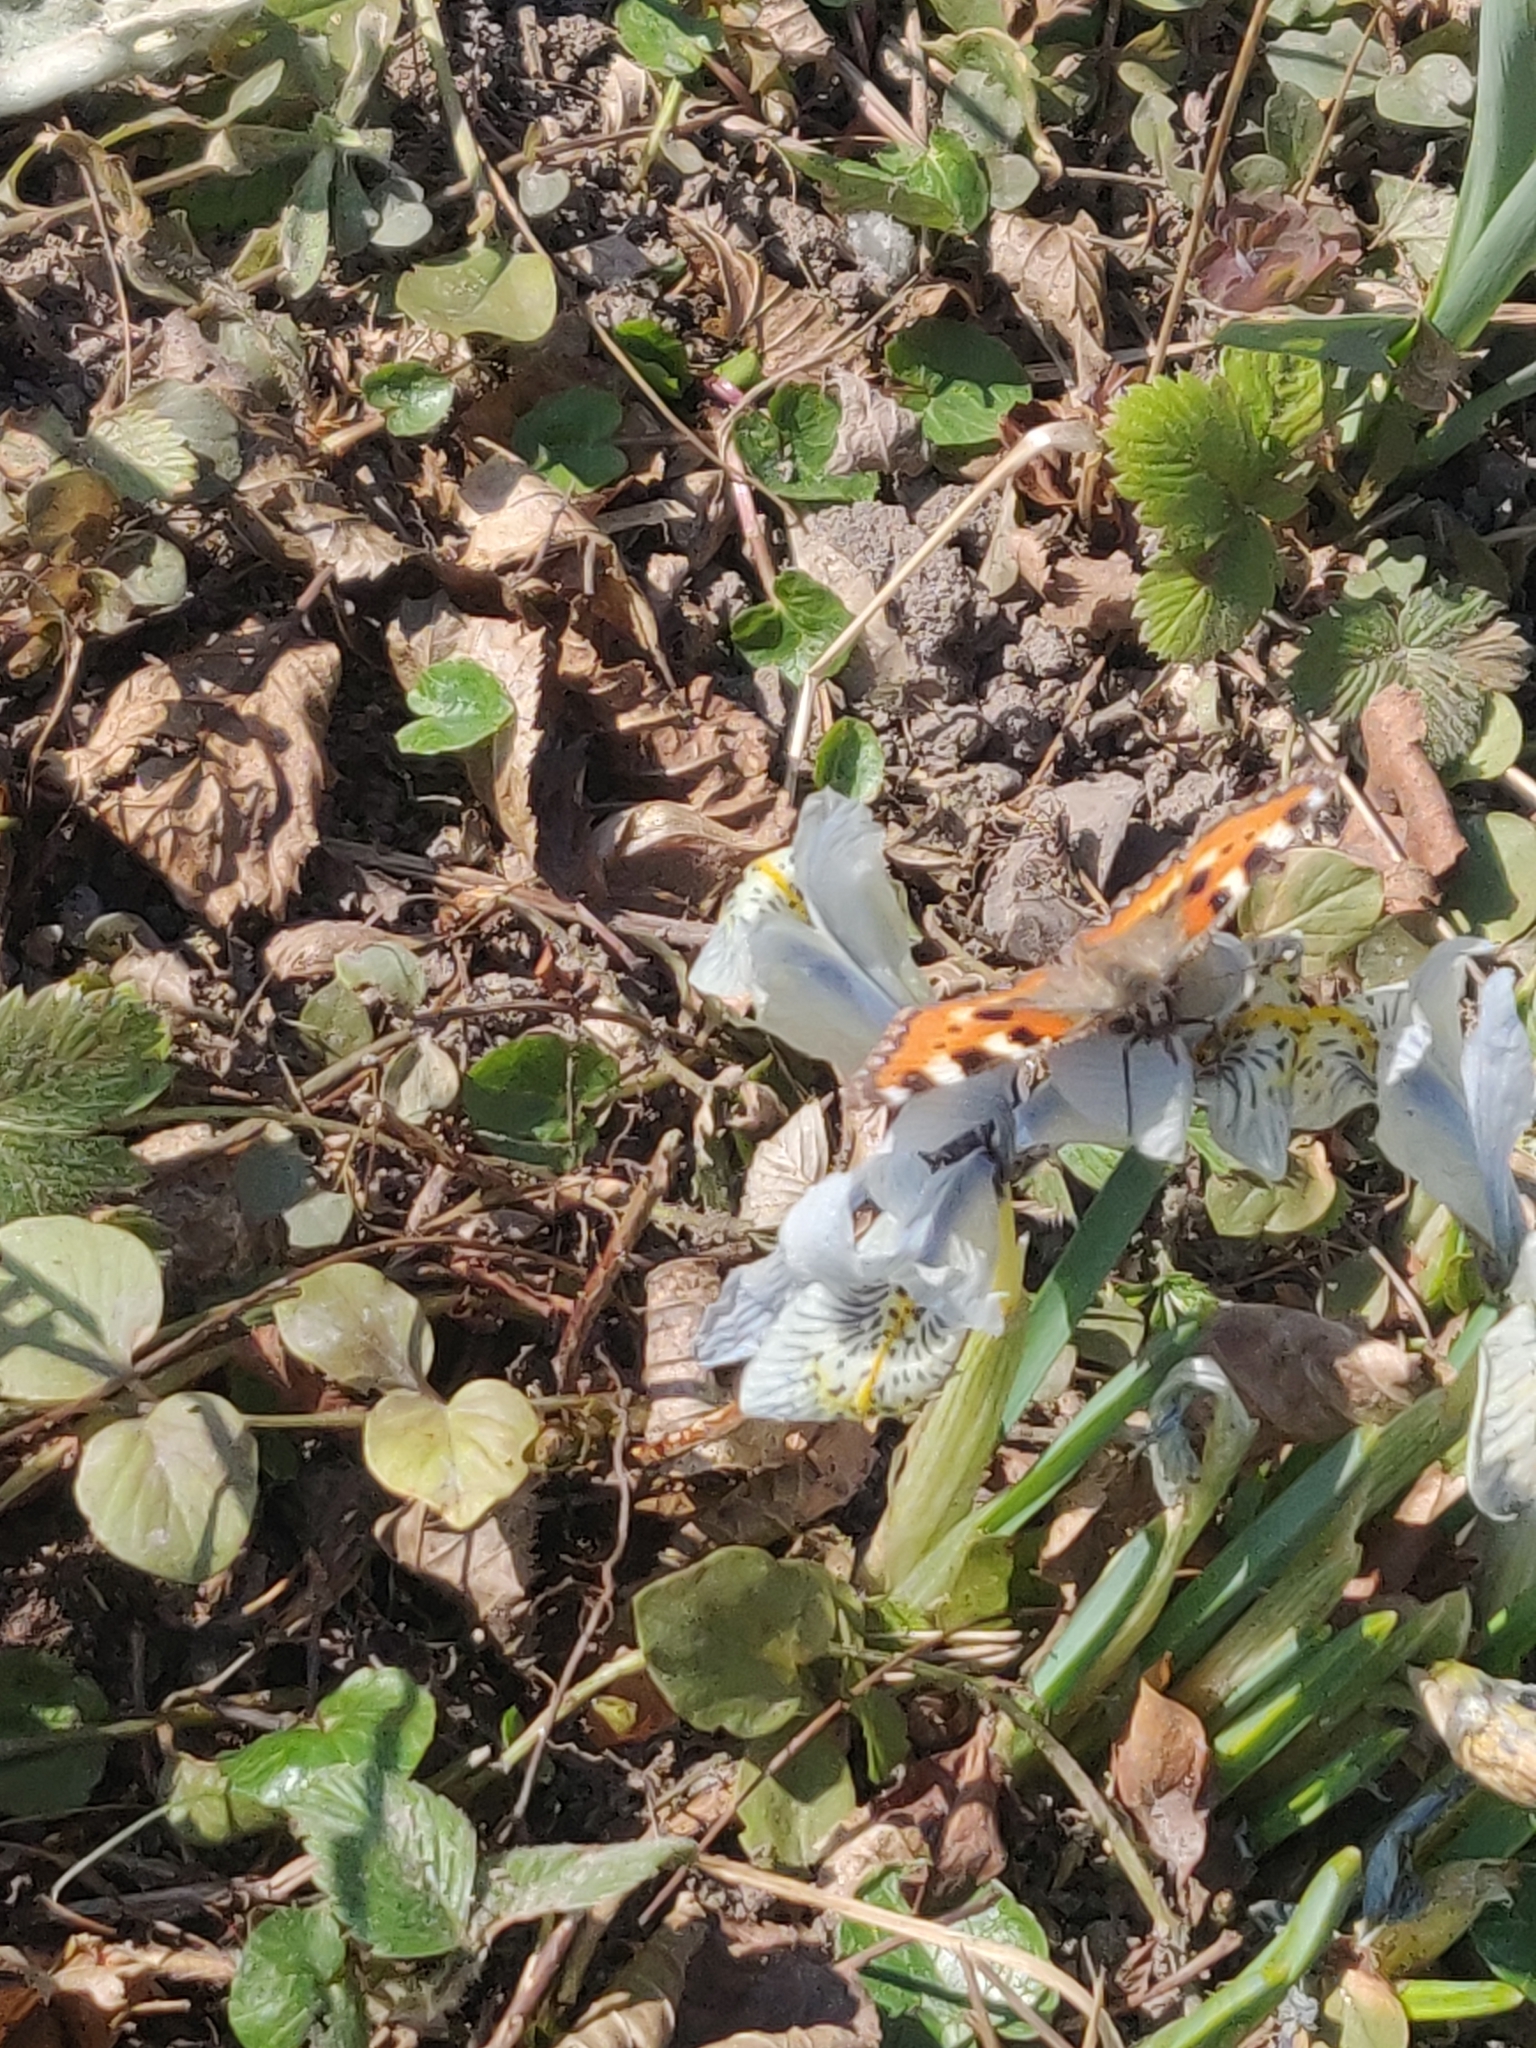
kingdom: Animalia
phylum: Arthropoda
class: Insecta
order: Lepidoptera
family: Nymphalidae
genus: Aglais
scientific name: Aglais urticae
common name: Small tortoiseshell
